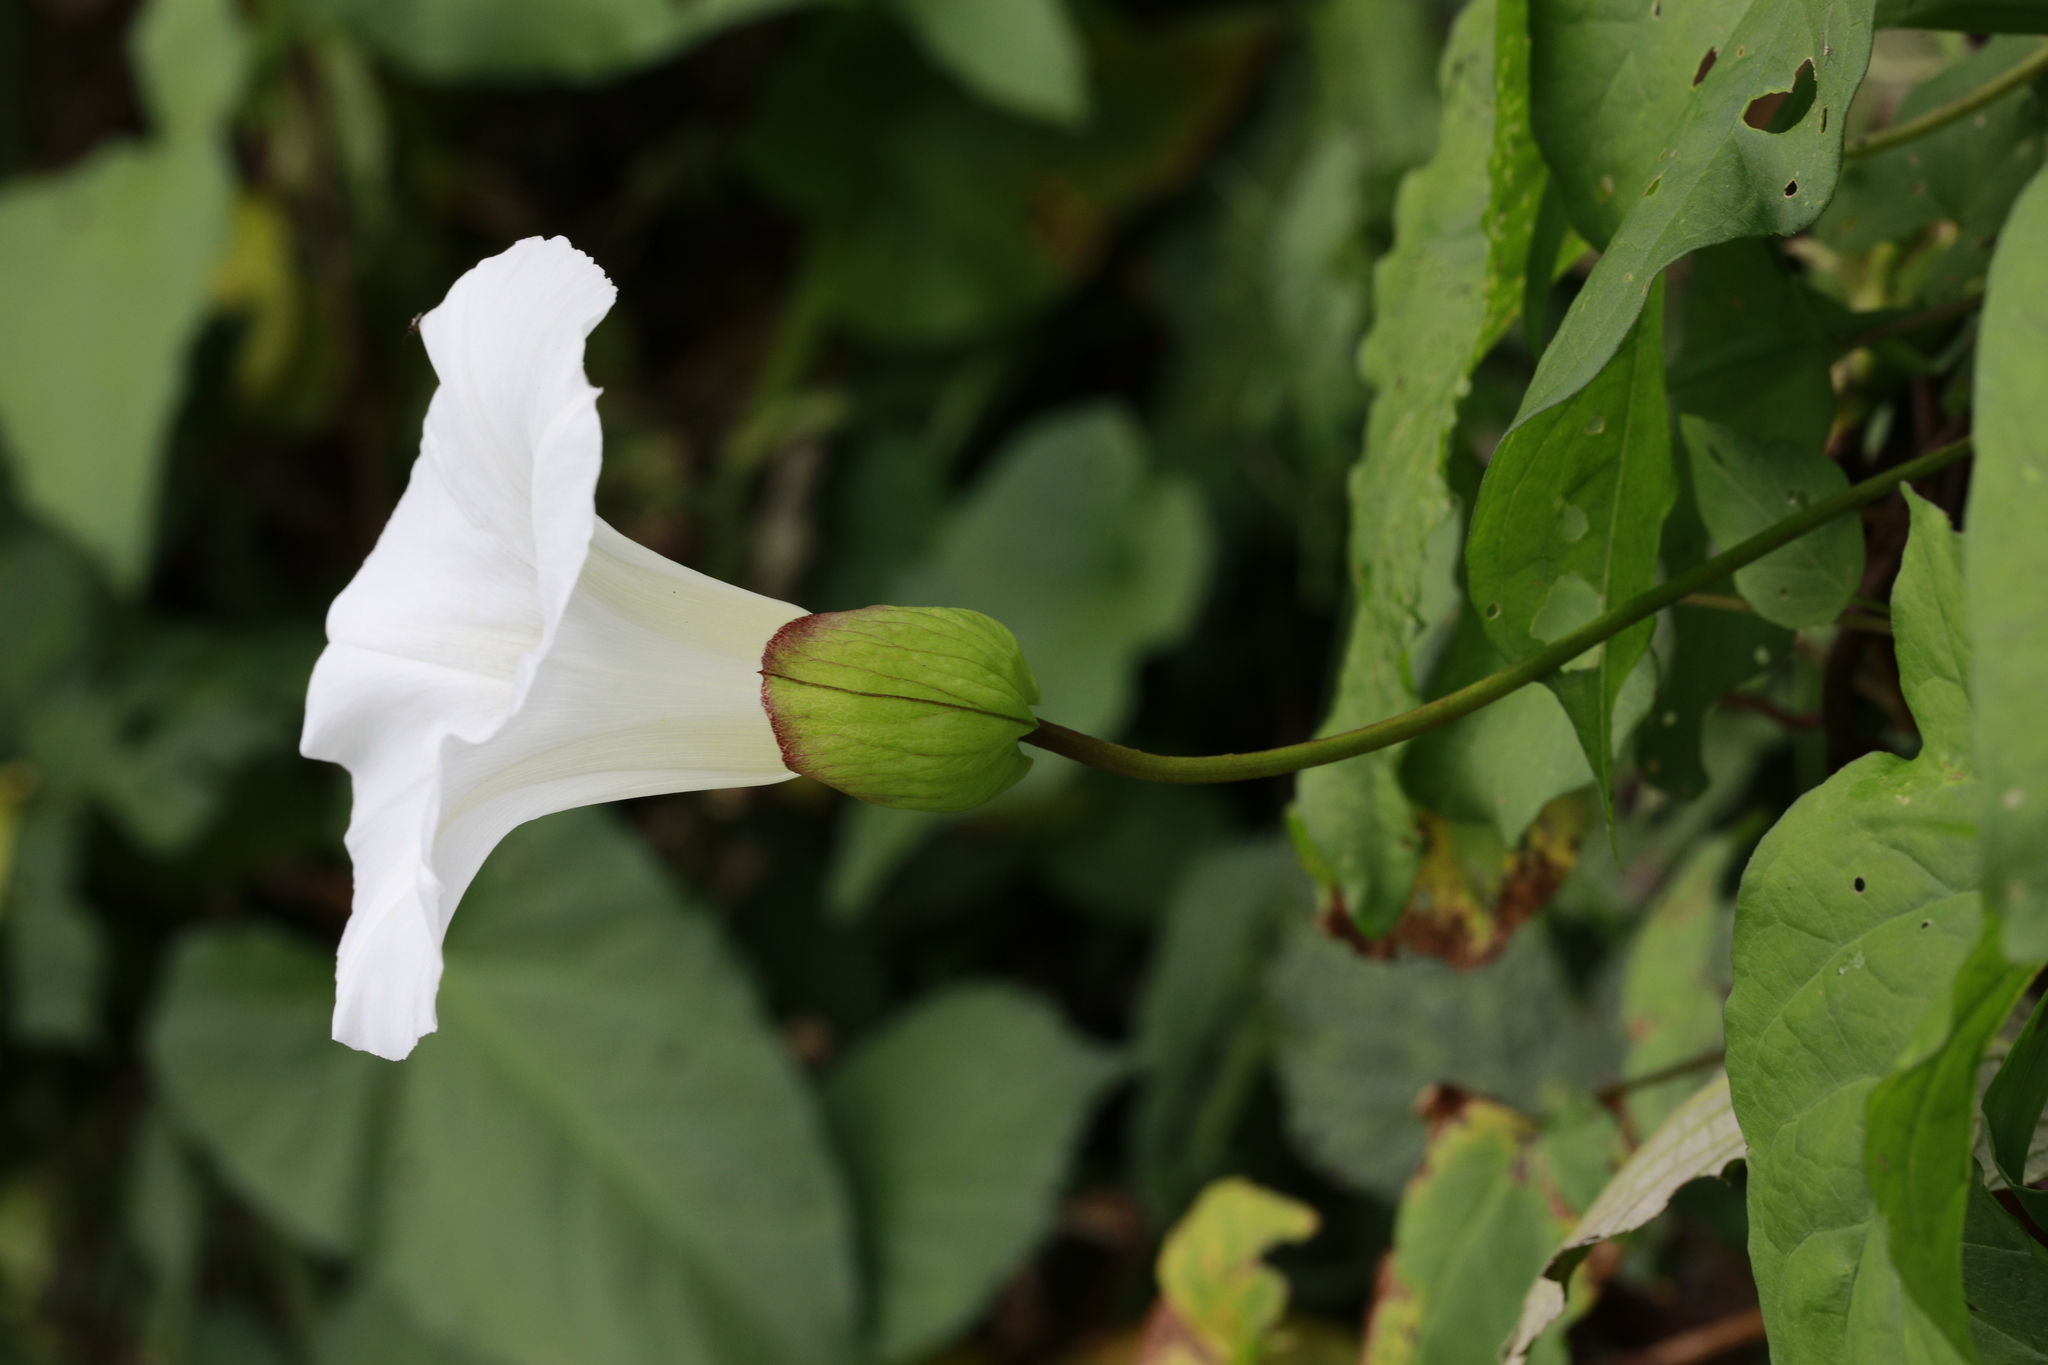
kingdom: Plantae
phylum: Tracheophyta
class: Magnoliopsida
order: Solanales
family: Convolvulaceae
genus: Calystegia
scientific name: Calystegia silvatica
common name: Large bindweed
